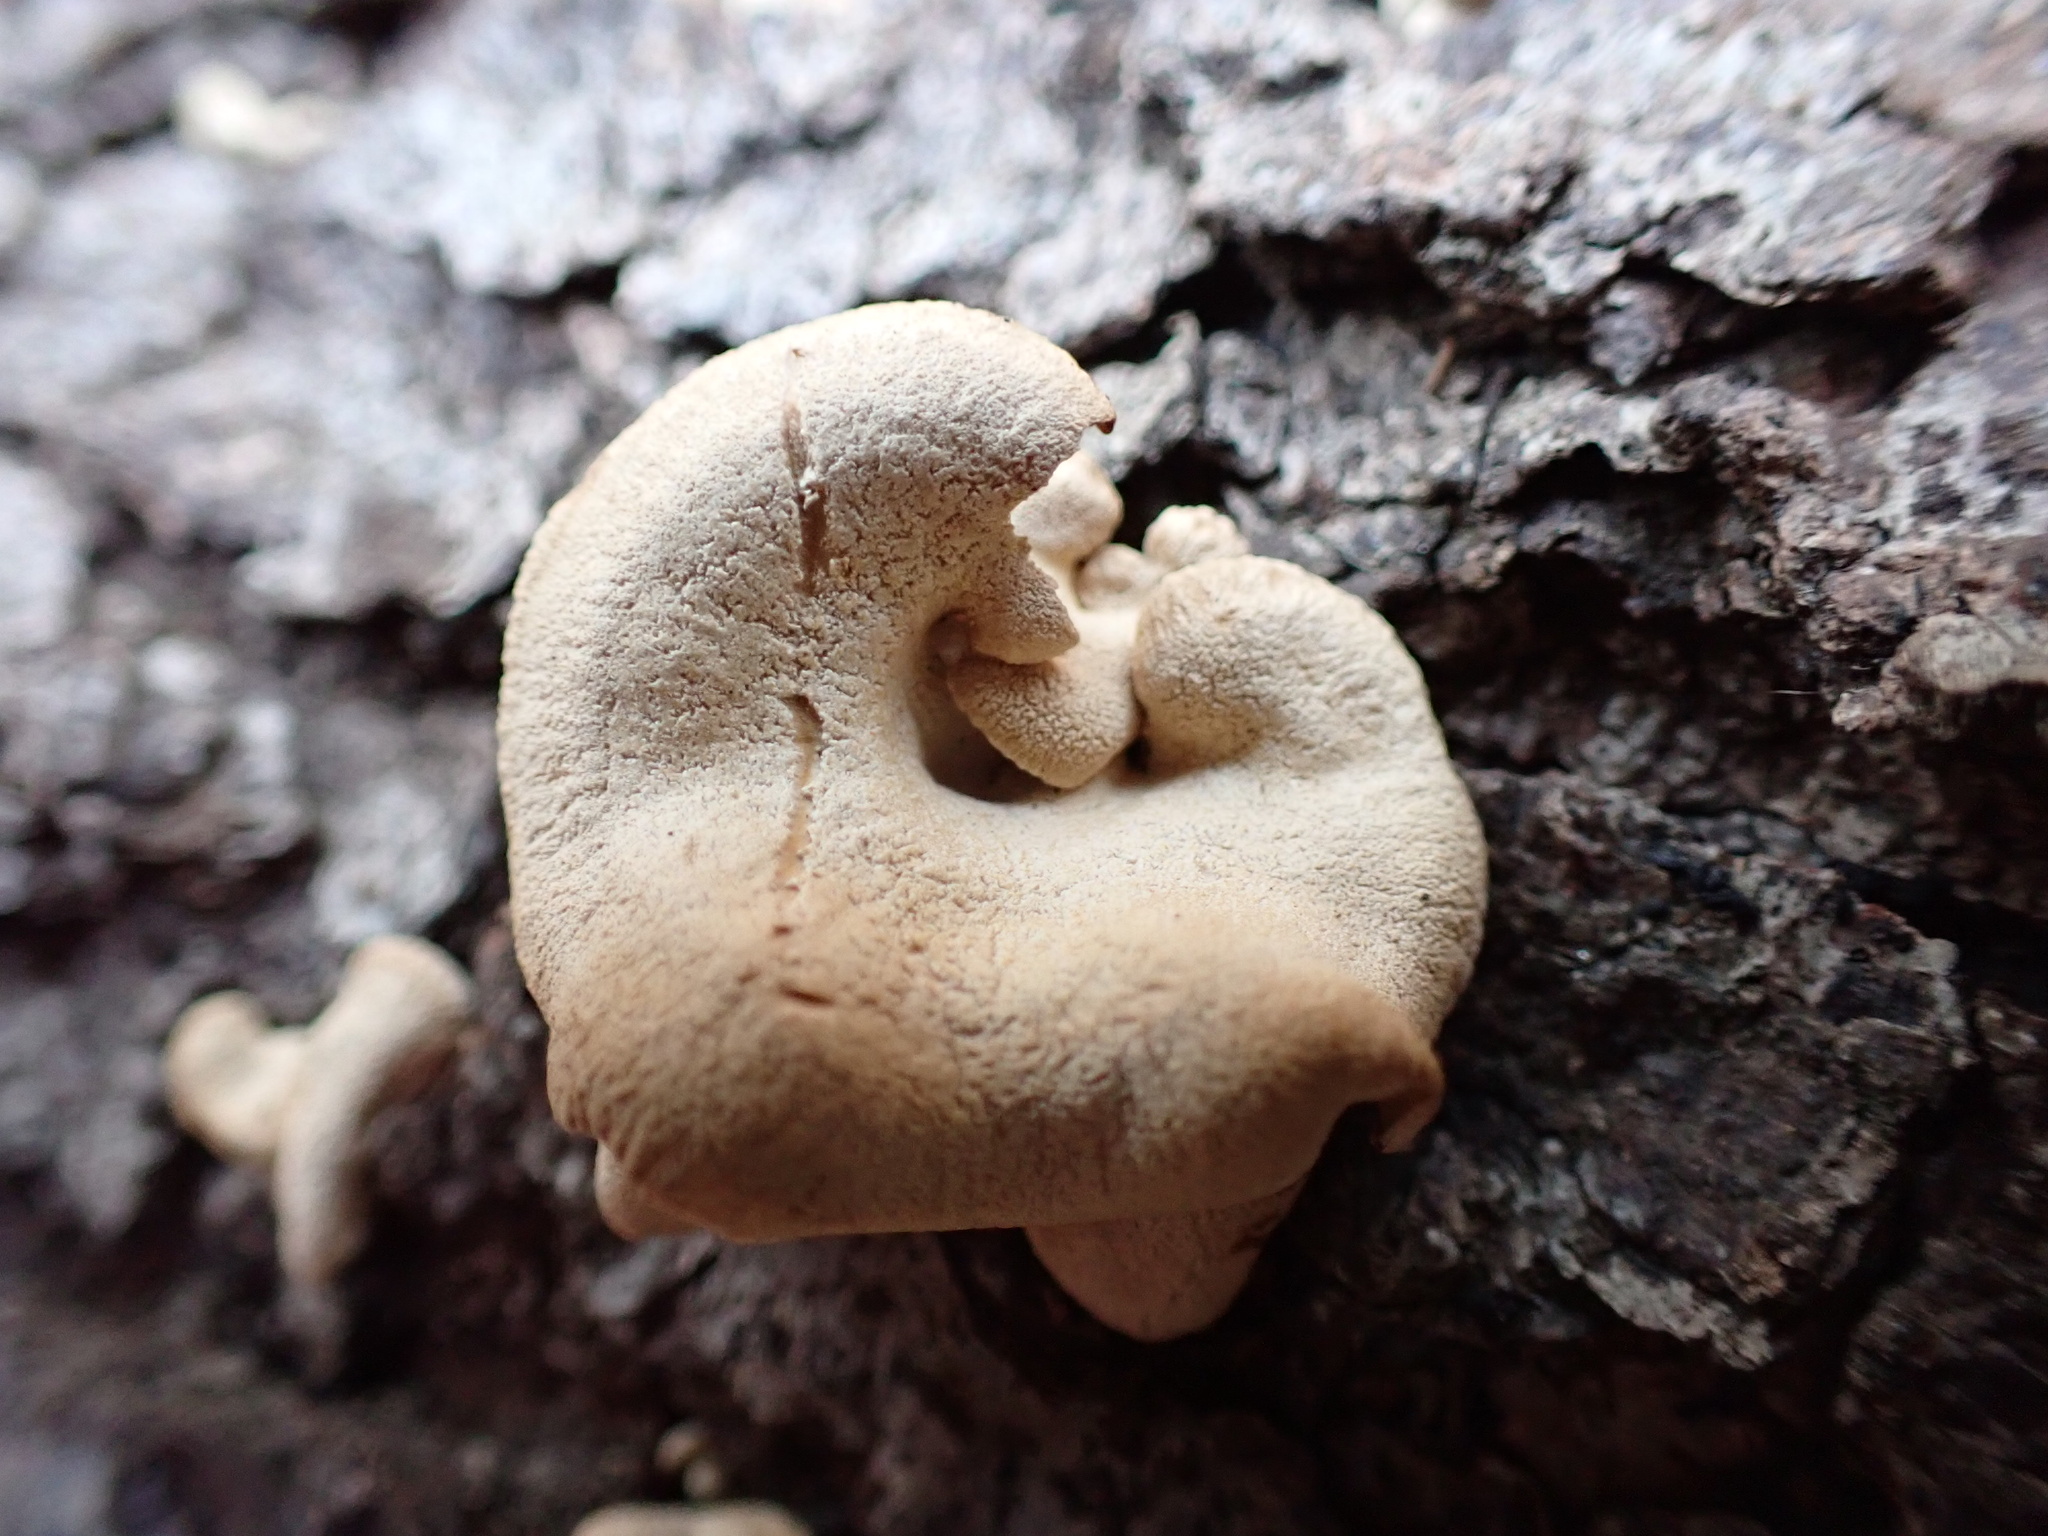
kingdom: Fungi
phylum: Basidiomycota
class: Agaricomycetes
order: Agaricales
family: Mycenaceae
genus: Panellus
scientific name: Panellus stipticus
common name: Bitter oysterling
